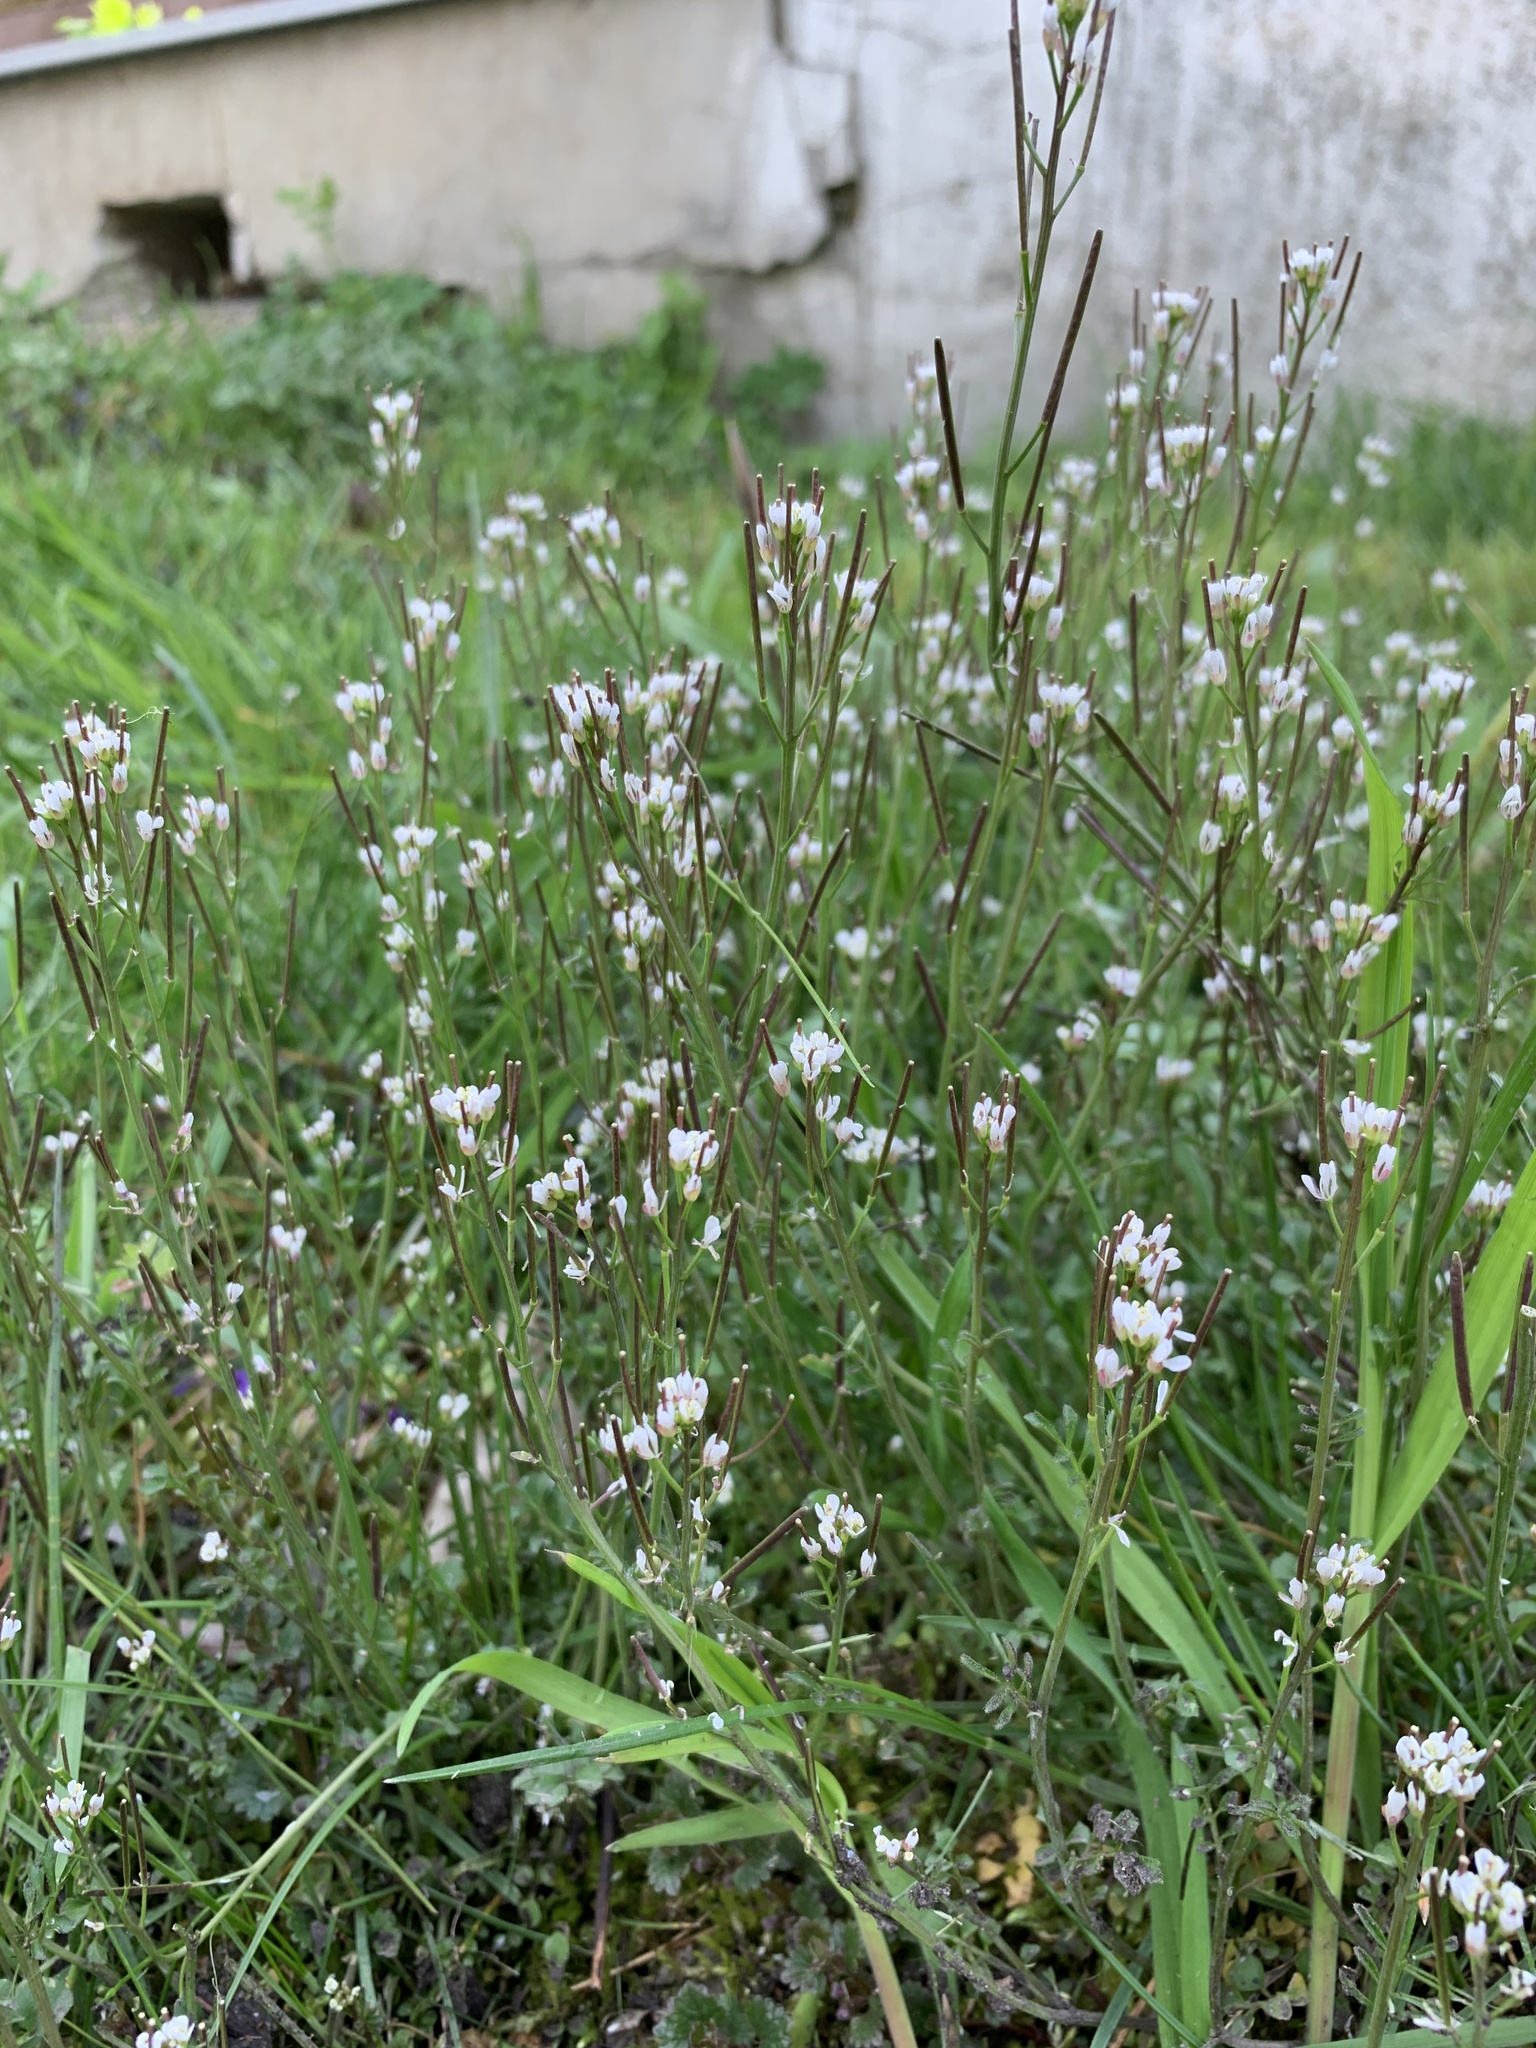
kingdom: Plantae
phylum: Tracheophyta
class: Magnoliopsida
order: Brassicales
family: Brassicaceae
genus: Cardamine
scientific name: Cardamine hirsuta
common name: Hairy bittercress
